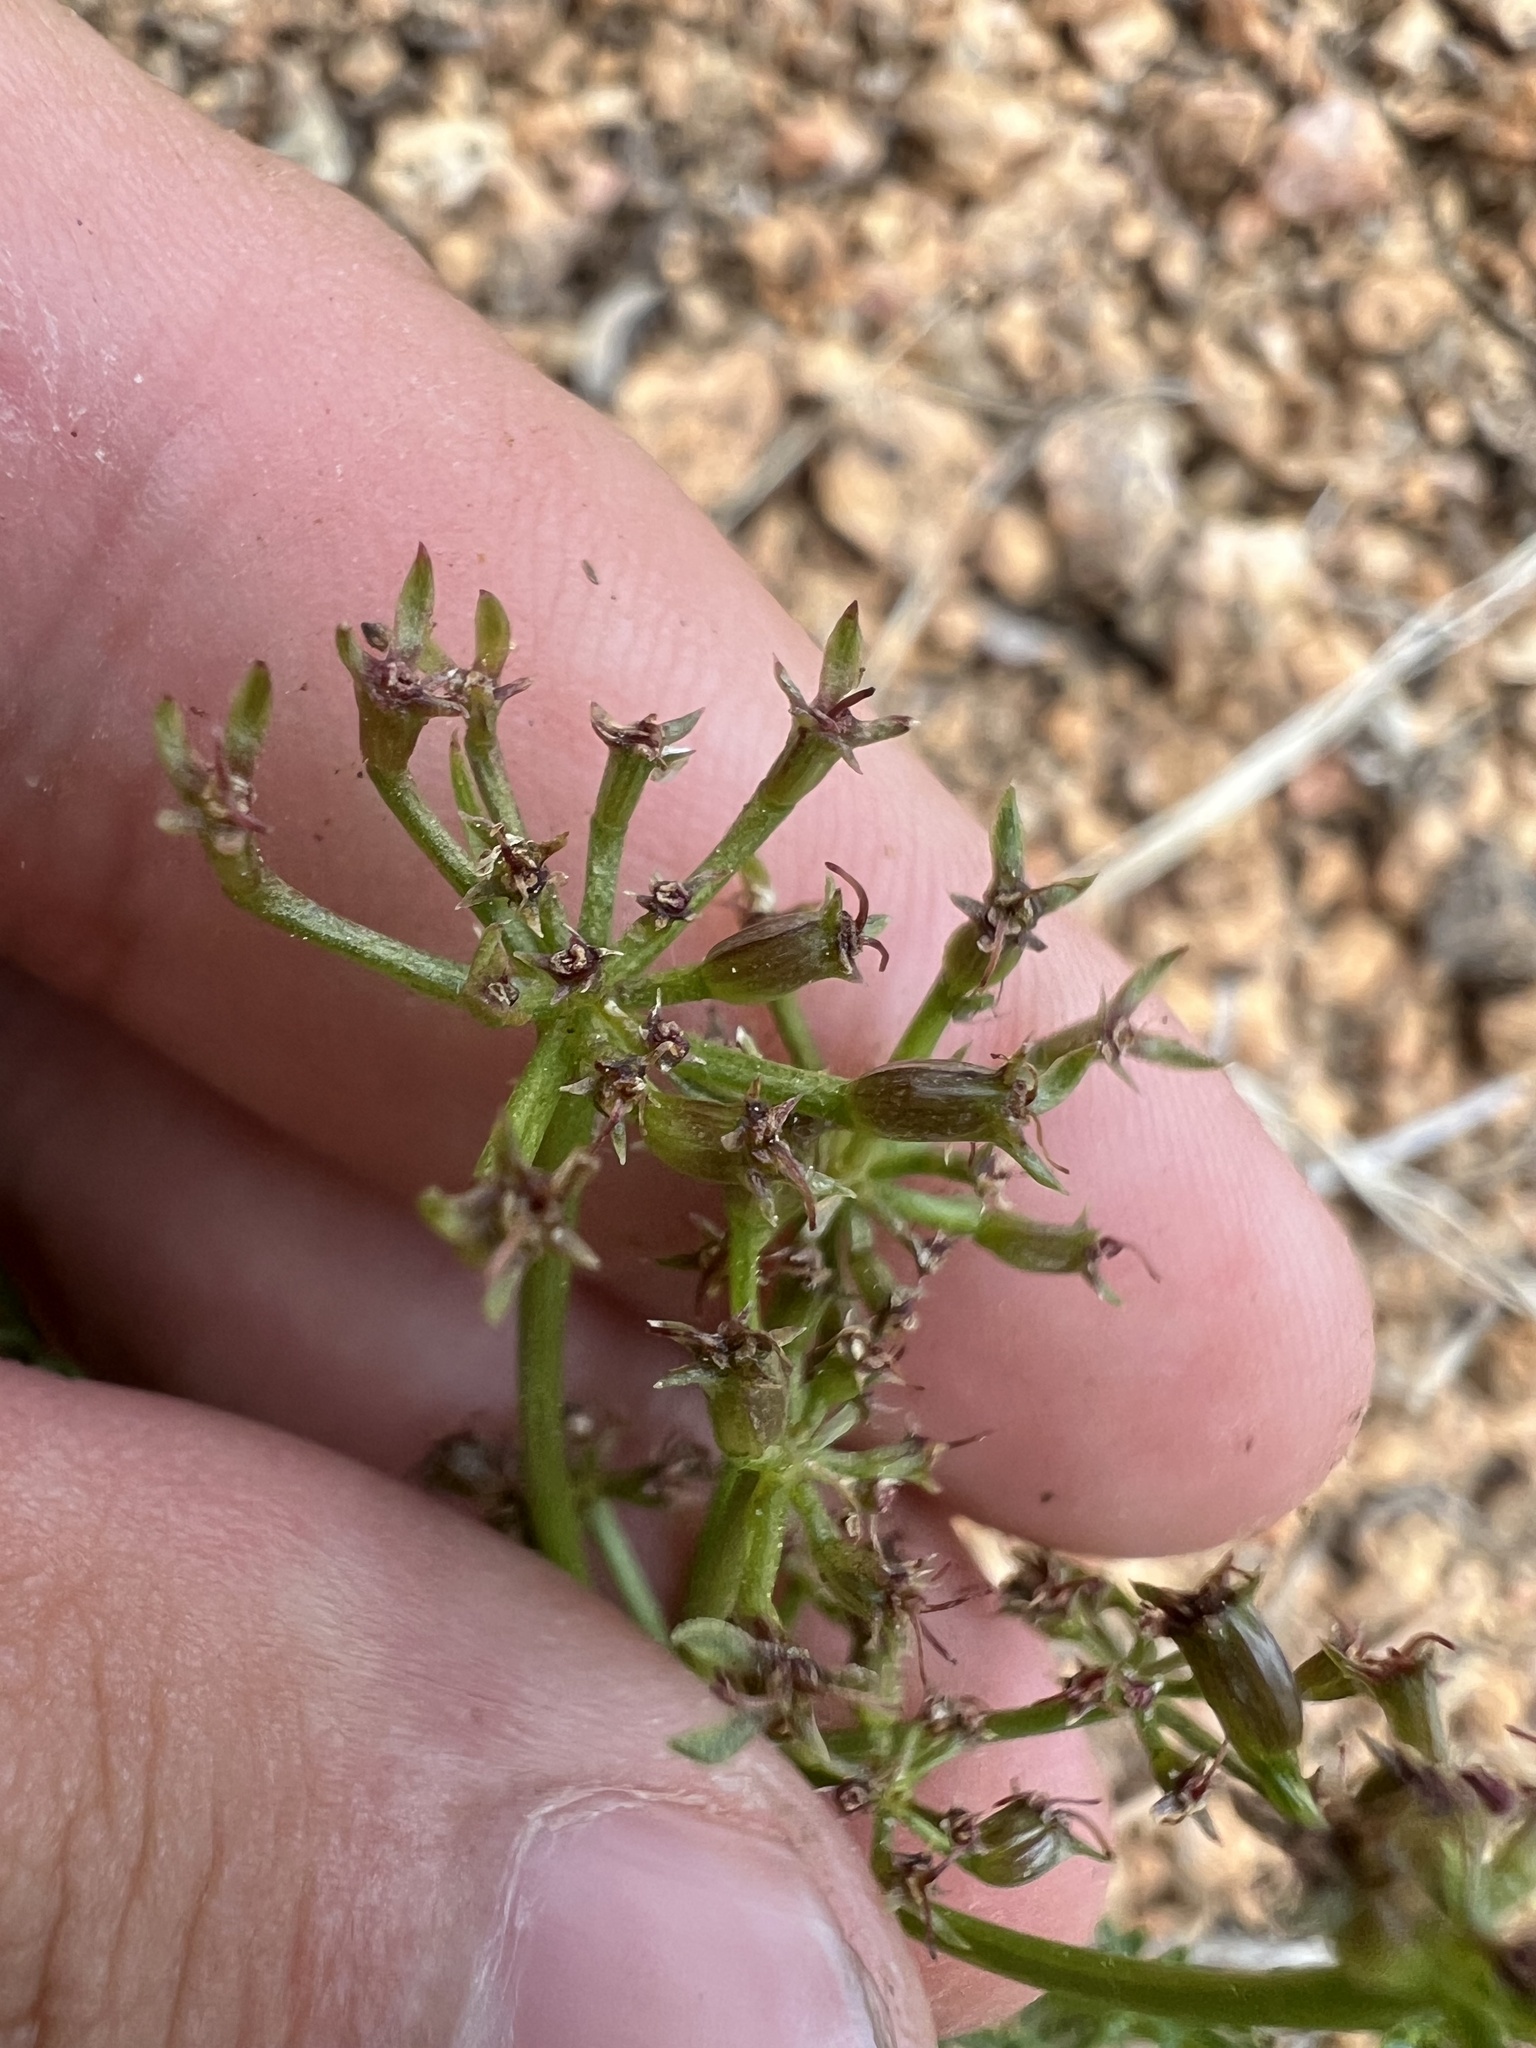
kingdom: Plantae
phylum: Tracheophyta
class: Magnoliopsida
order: Apiales
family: Apiaceae
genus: Cymopterus
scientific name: Cymopterus anisatus
